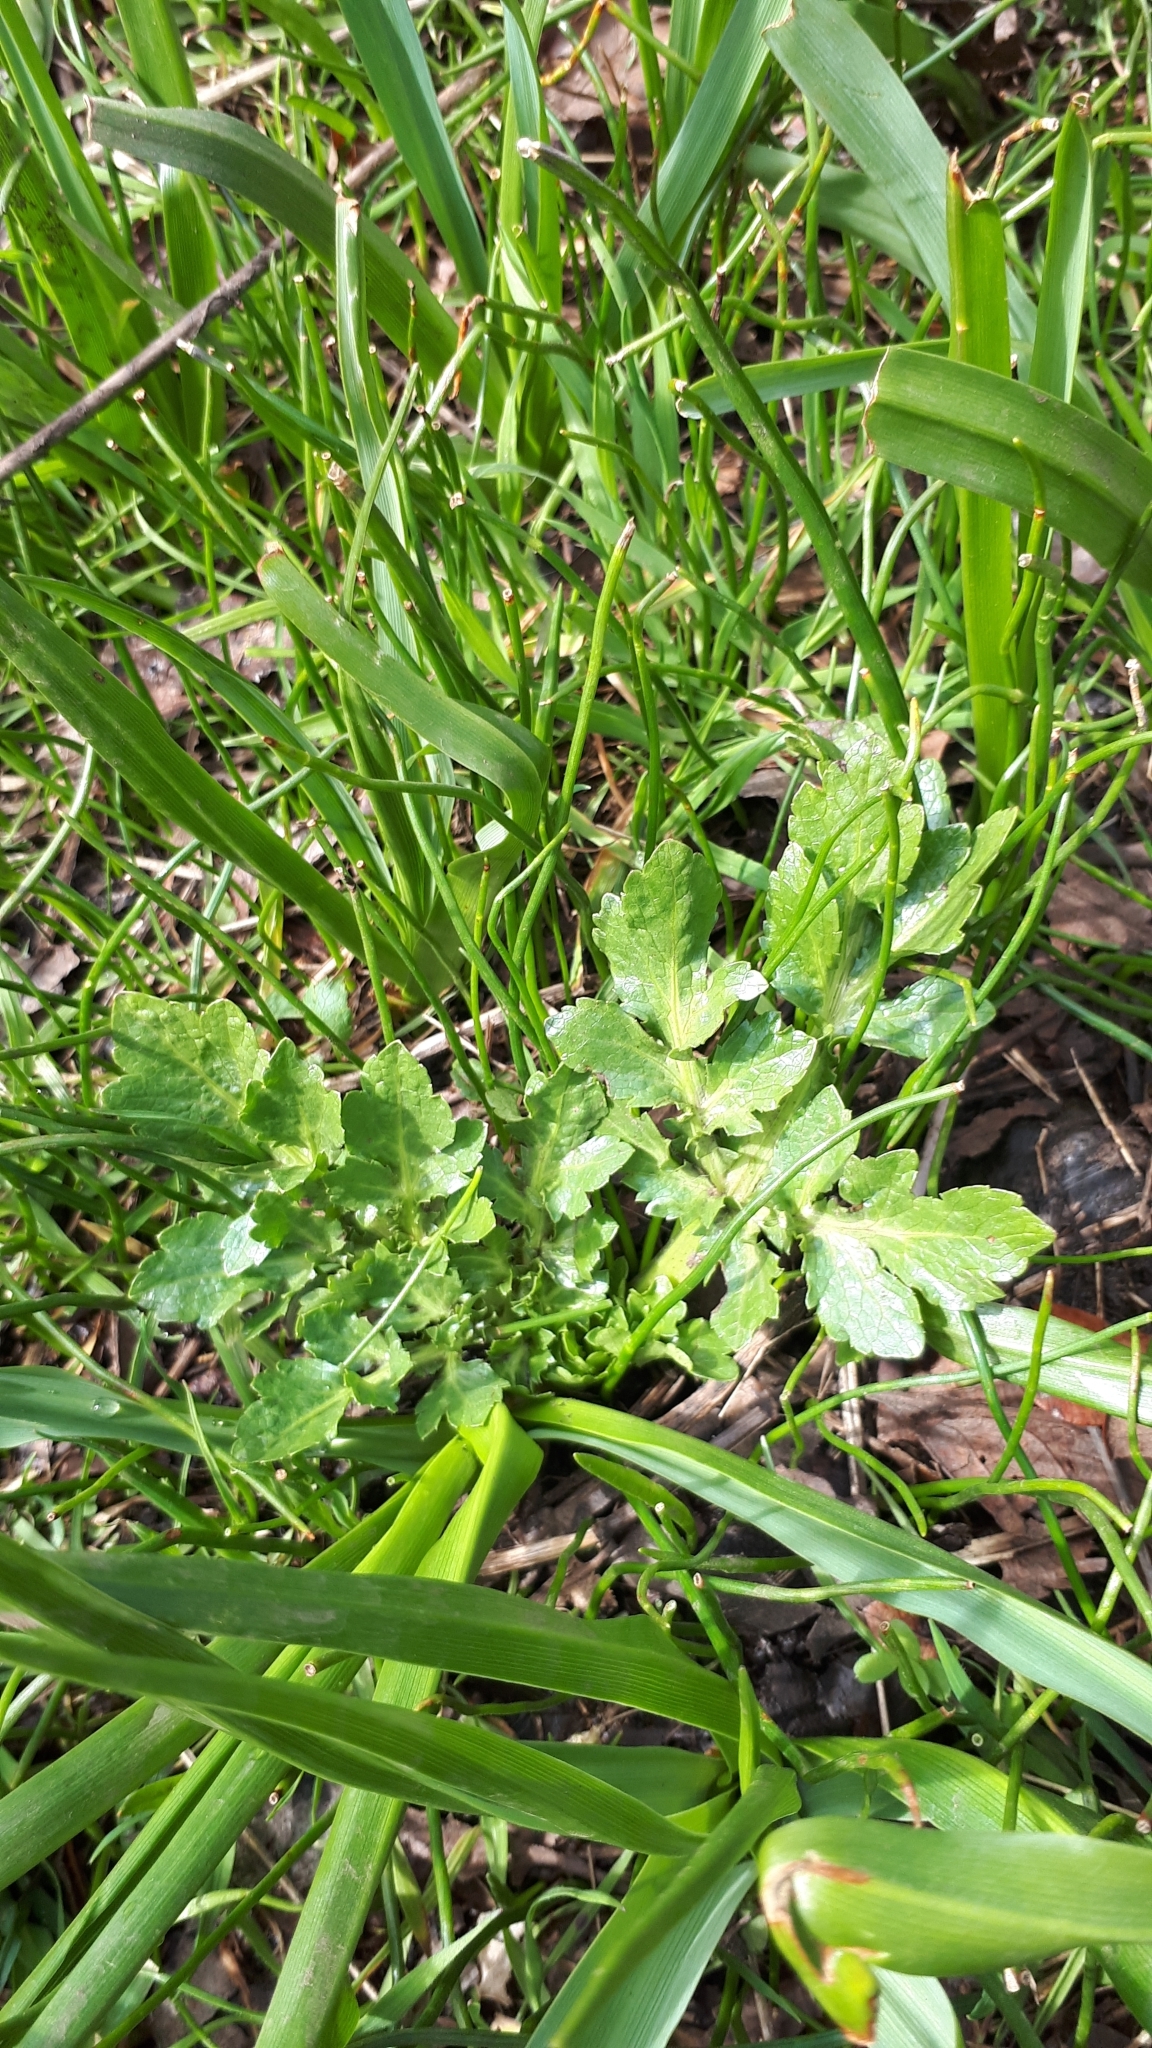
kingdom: Plantae
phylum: Tracheophyta
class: Magnoliopsida
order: Apiales
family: Apiaceae
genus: Sanicula
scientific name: Sanicula bipinnatifida
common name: Shoe-buttons
